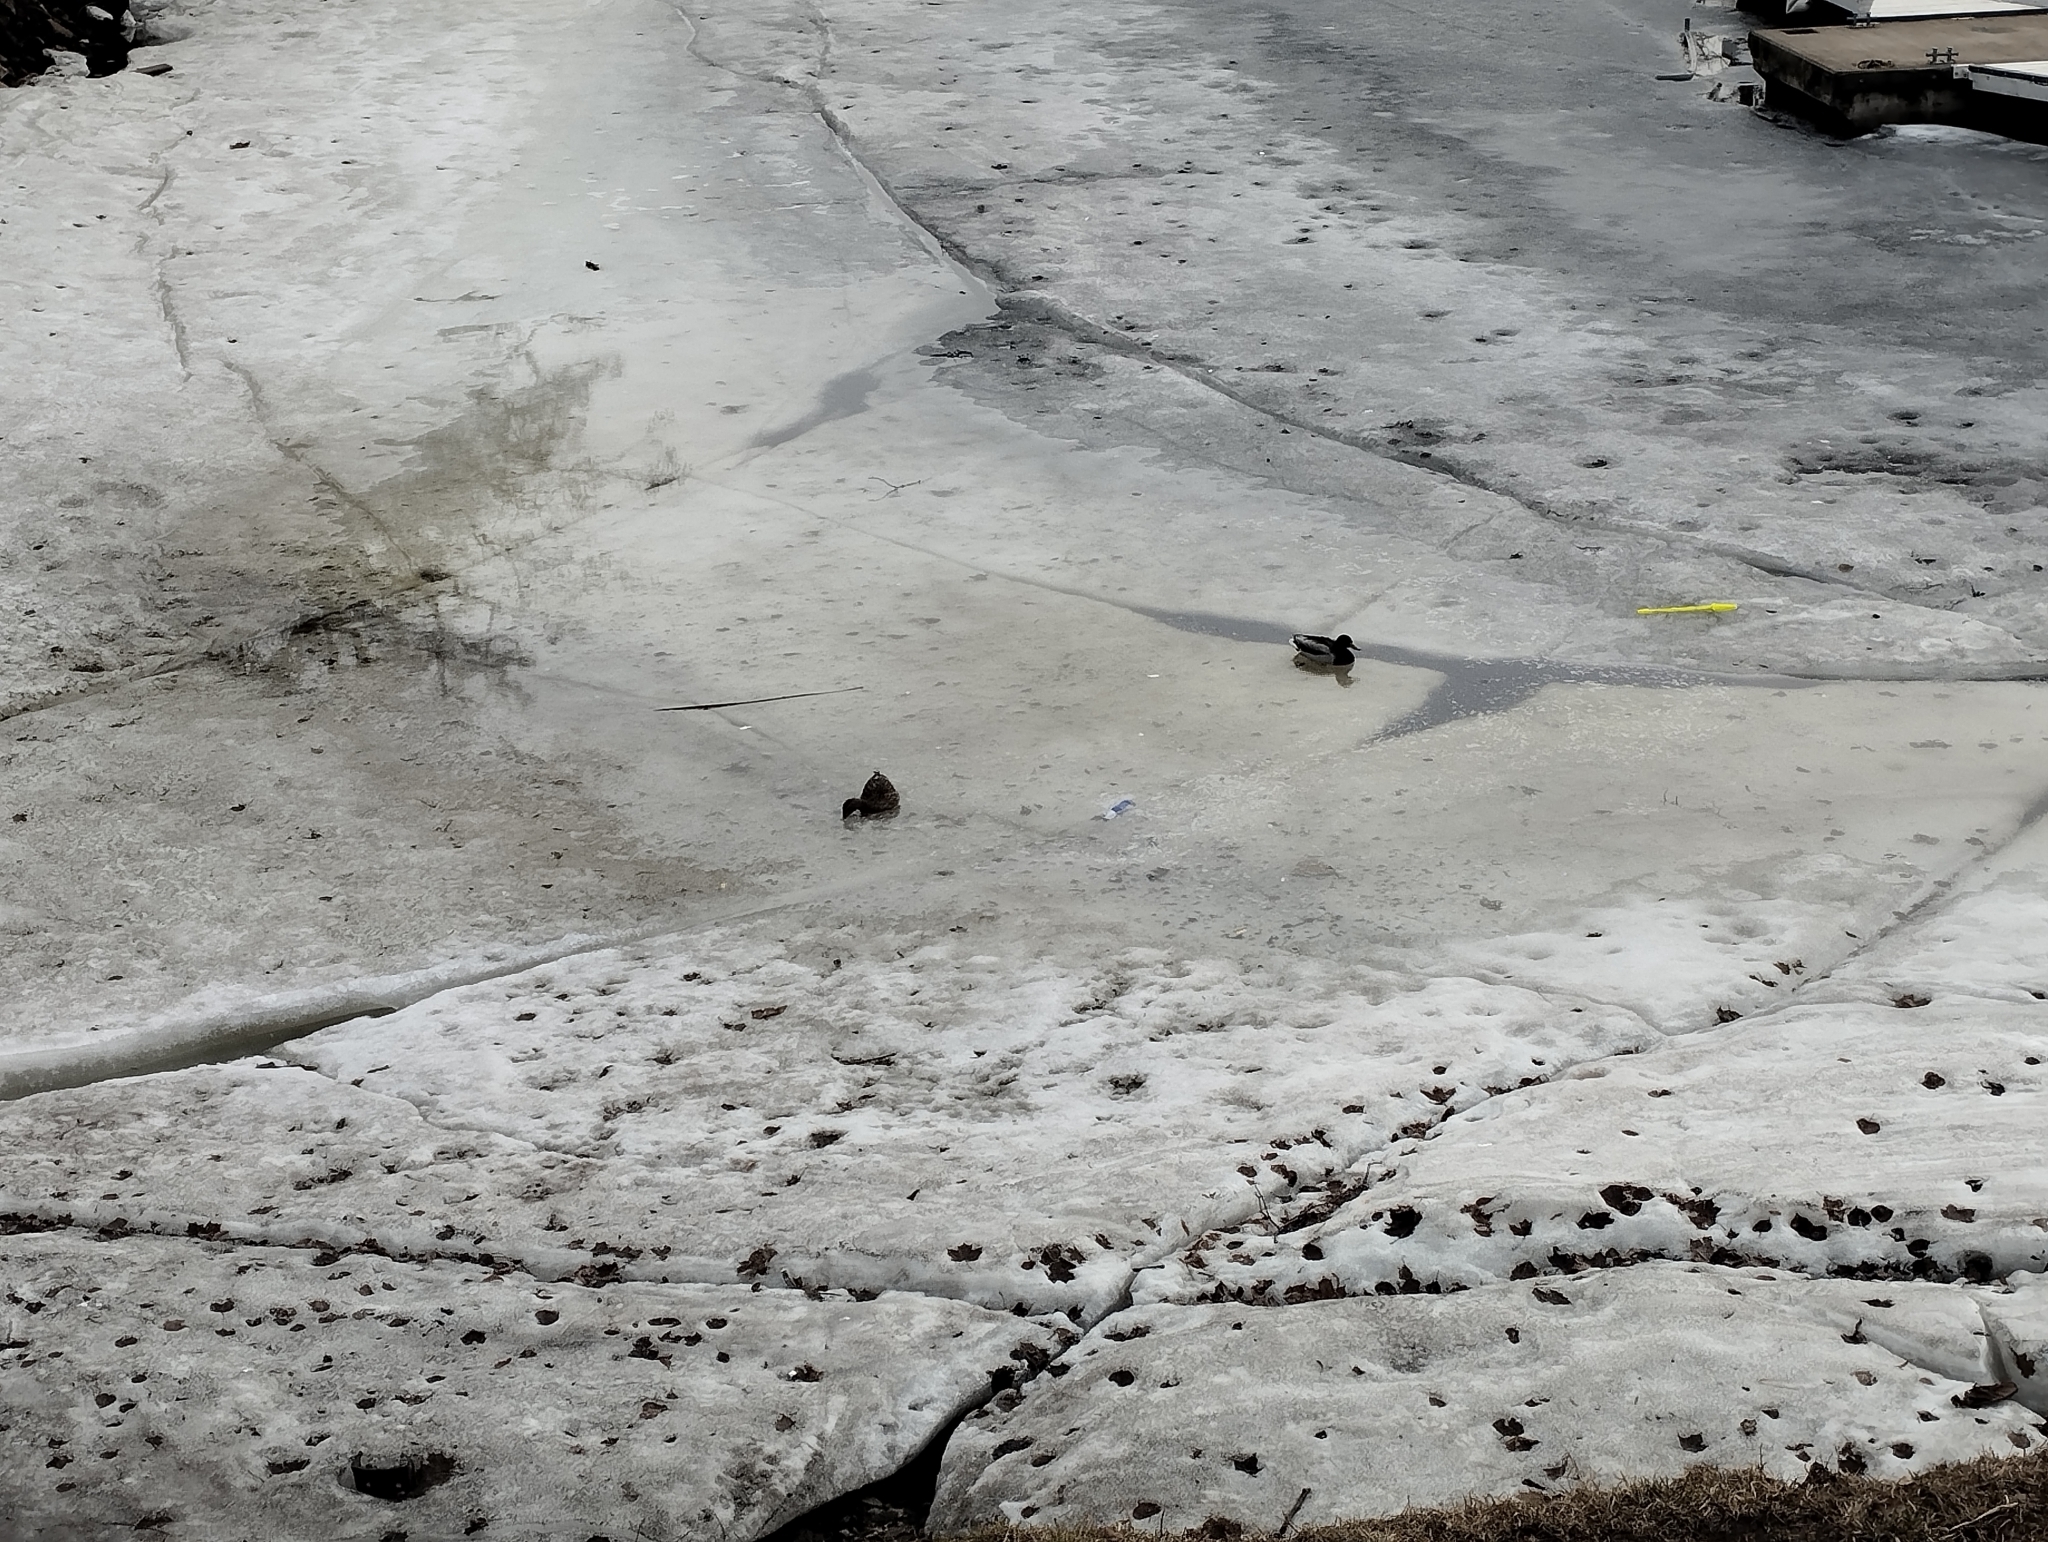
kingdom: Animalia
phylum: Chordata
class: Aves
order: Anseriformes
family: Anatidae
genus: Anas
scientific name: Anas platyrhynchos
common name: Mallard
